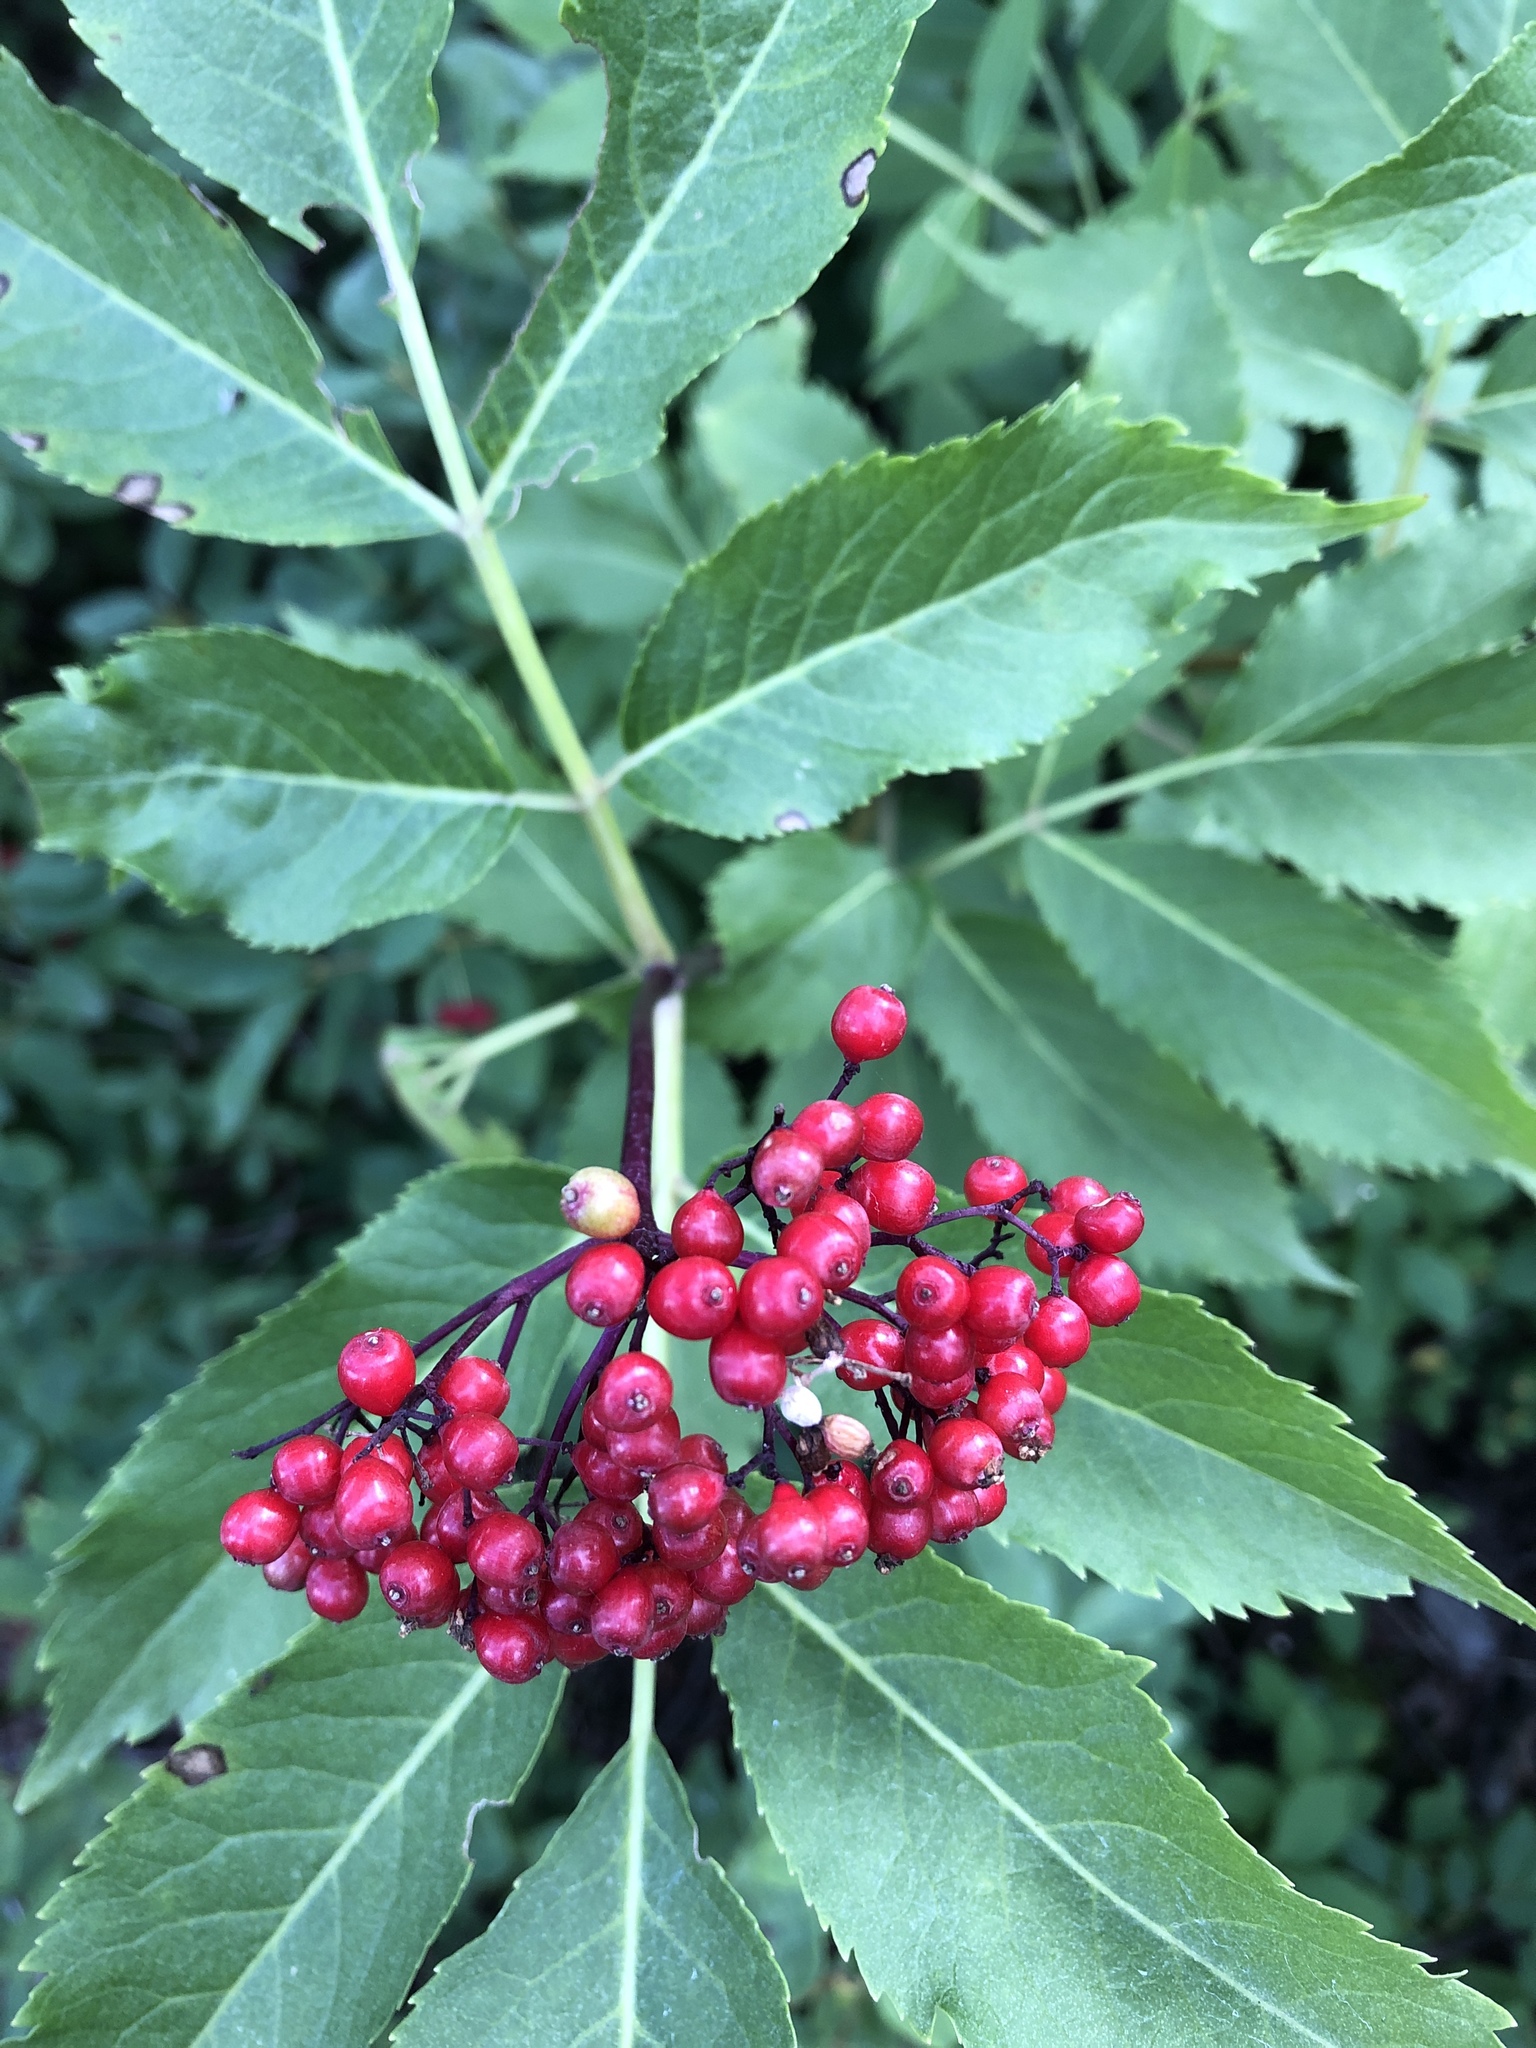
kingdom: Plantae
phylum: Tracheophyta
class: Magnoliopsida
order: Dipsacales
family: Viburnaceae
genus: Sambucus
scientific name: Sambucus racemosa
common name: Red-berried elder
